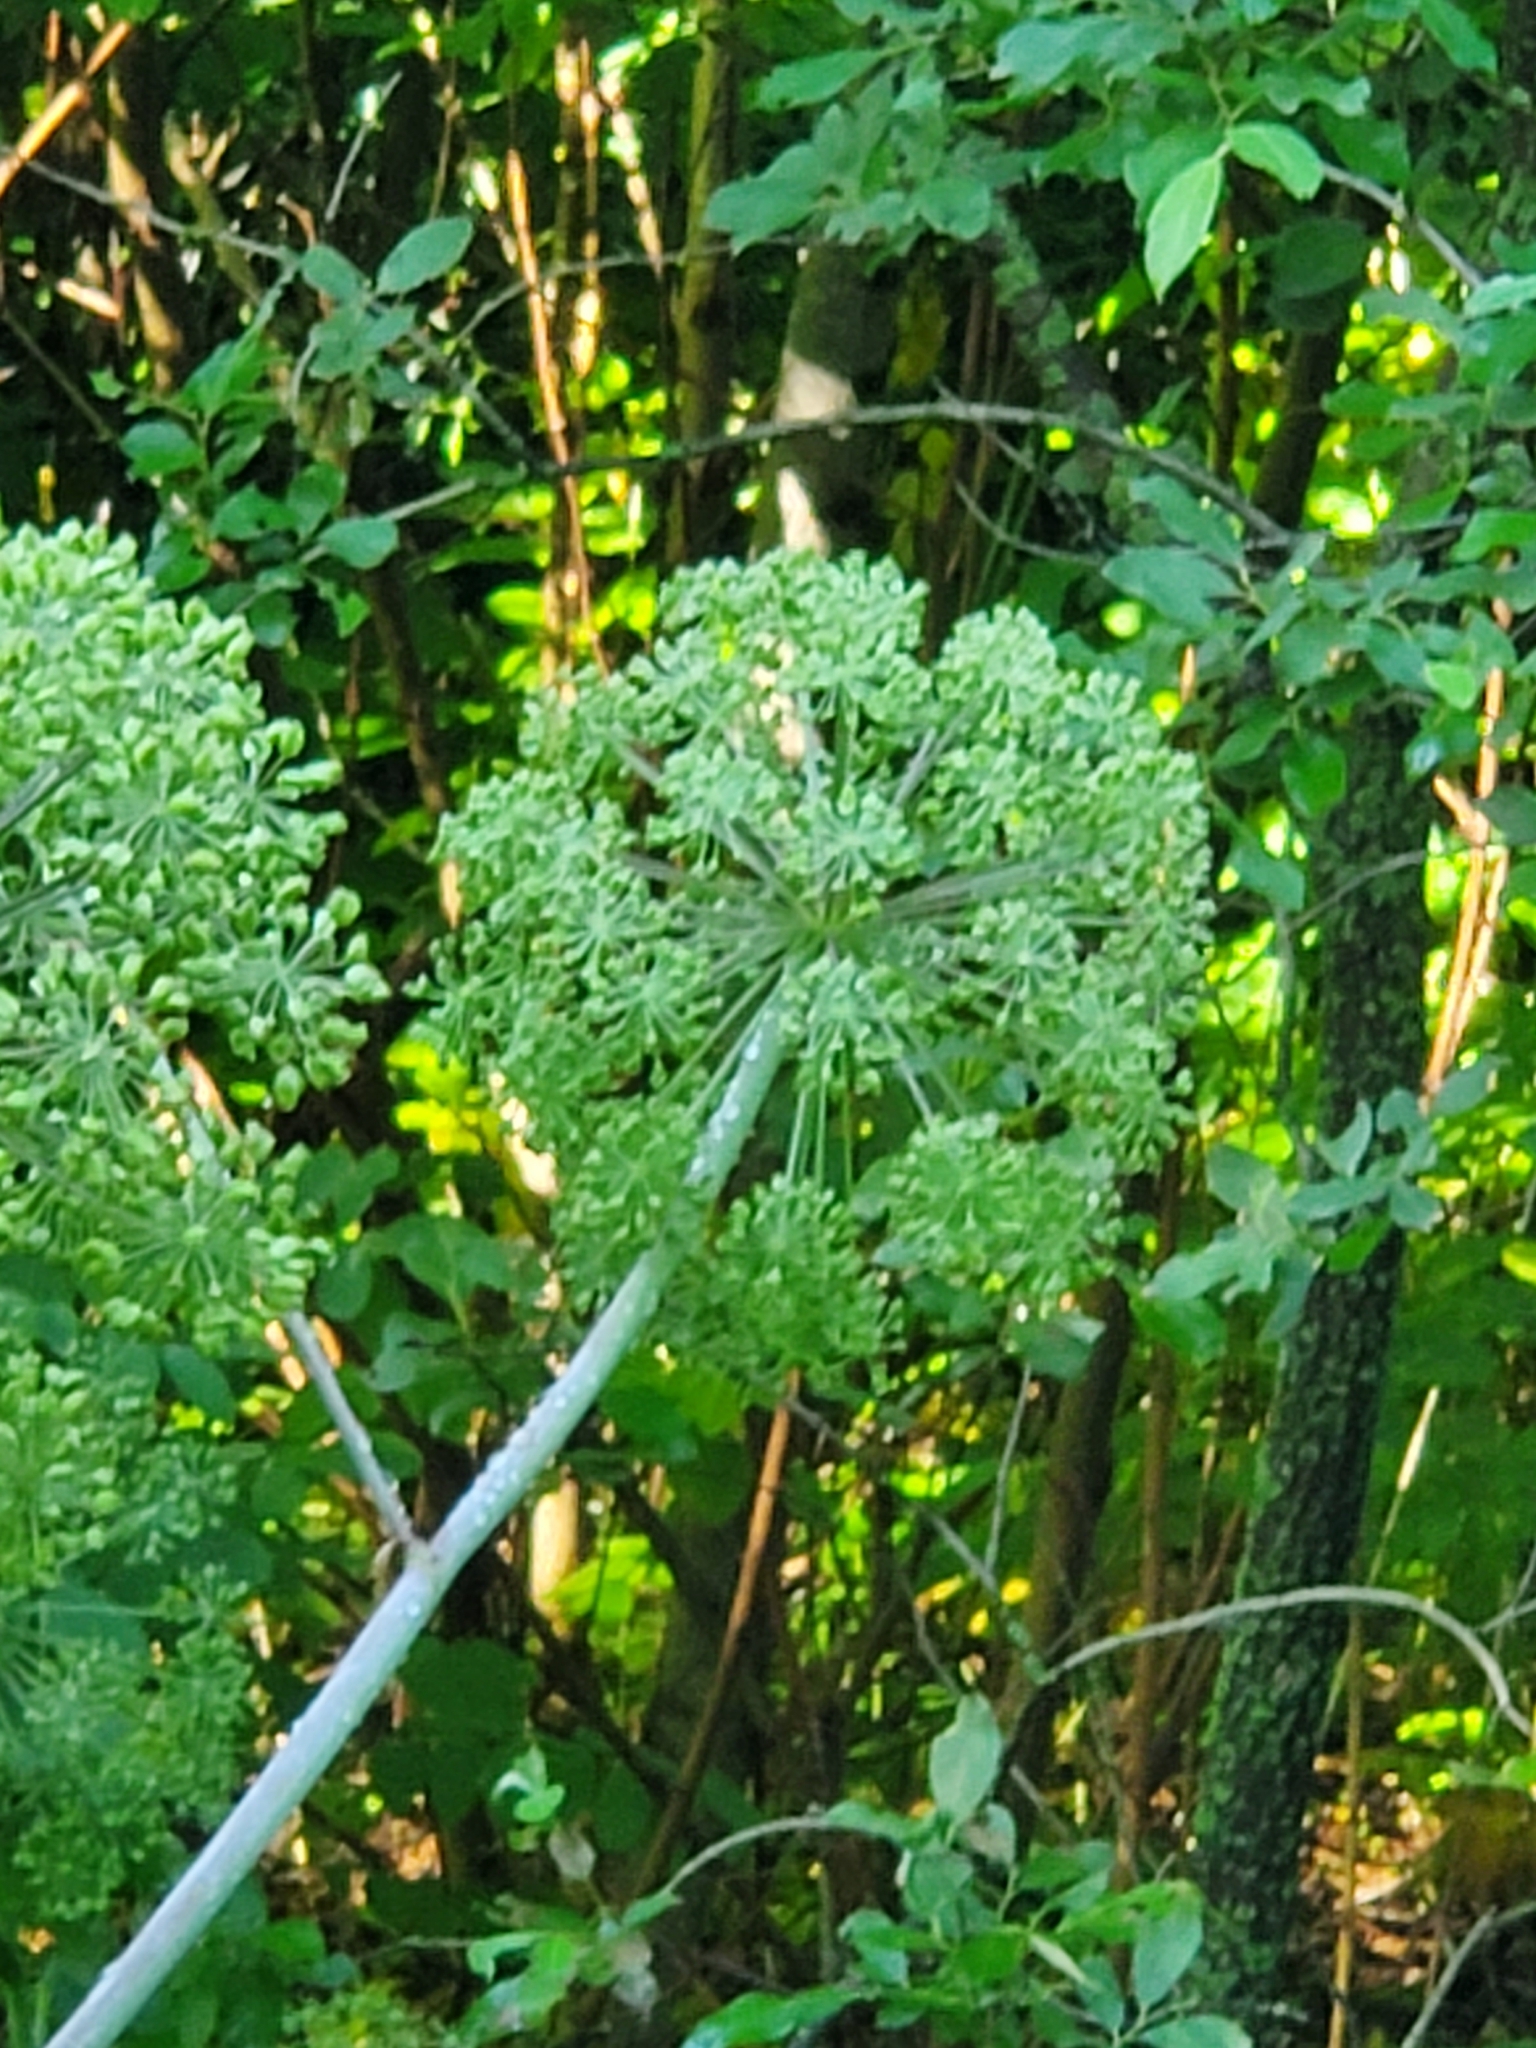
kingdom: Plantae
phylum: Tracheophyta
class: Magnoliopsida
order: Apiales
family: Apiaceae
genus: Angelica
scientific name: Angelica atropurpurea
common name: Great angelica
